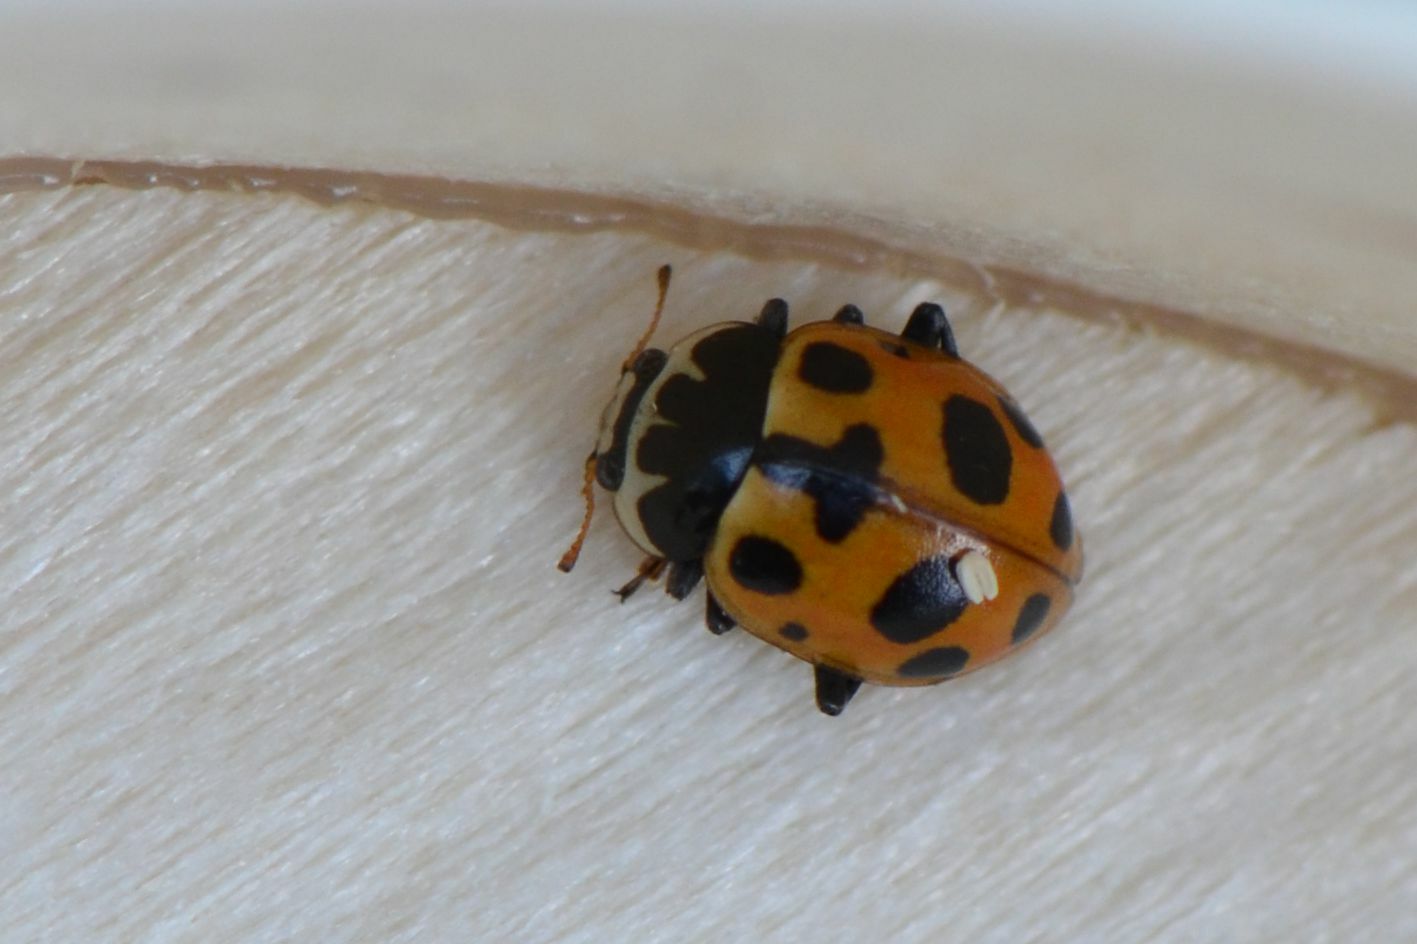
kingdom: Animalia
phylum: Arthropoda
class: Insecta
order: Coleoptera
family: Coccinellidae
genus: Ceratomegilla
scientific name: Ceratomegilla notata
